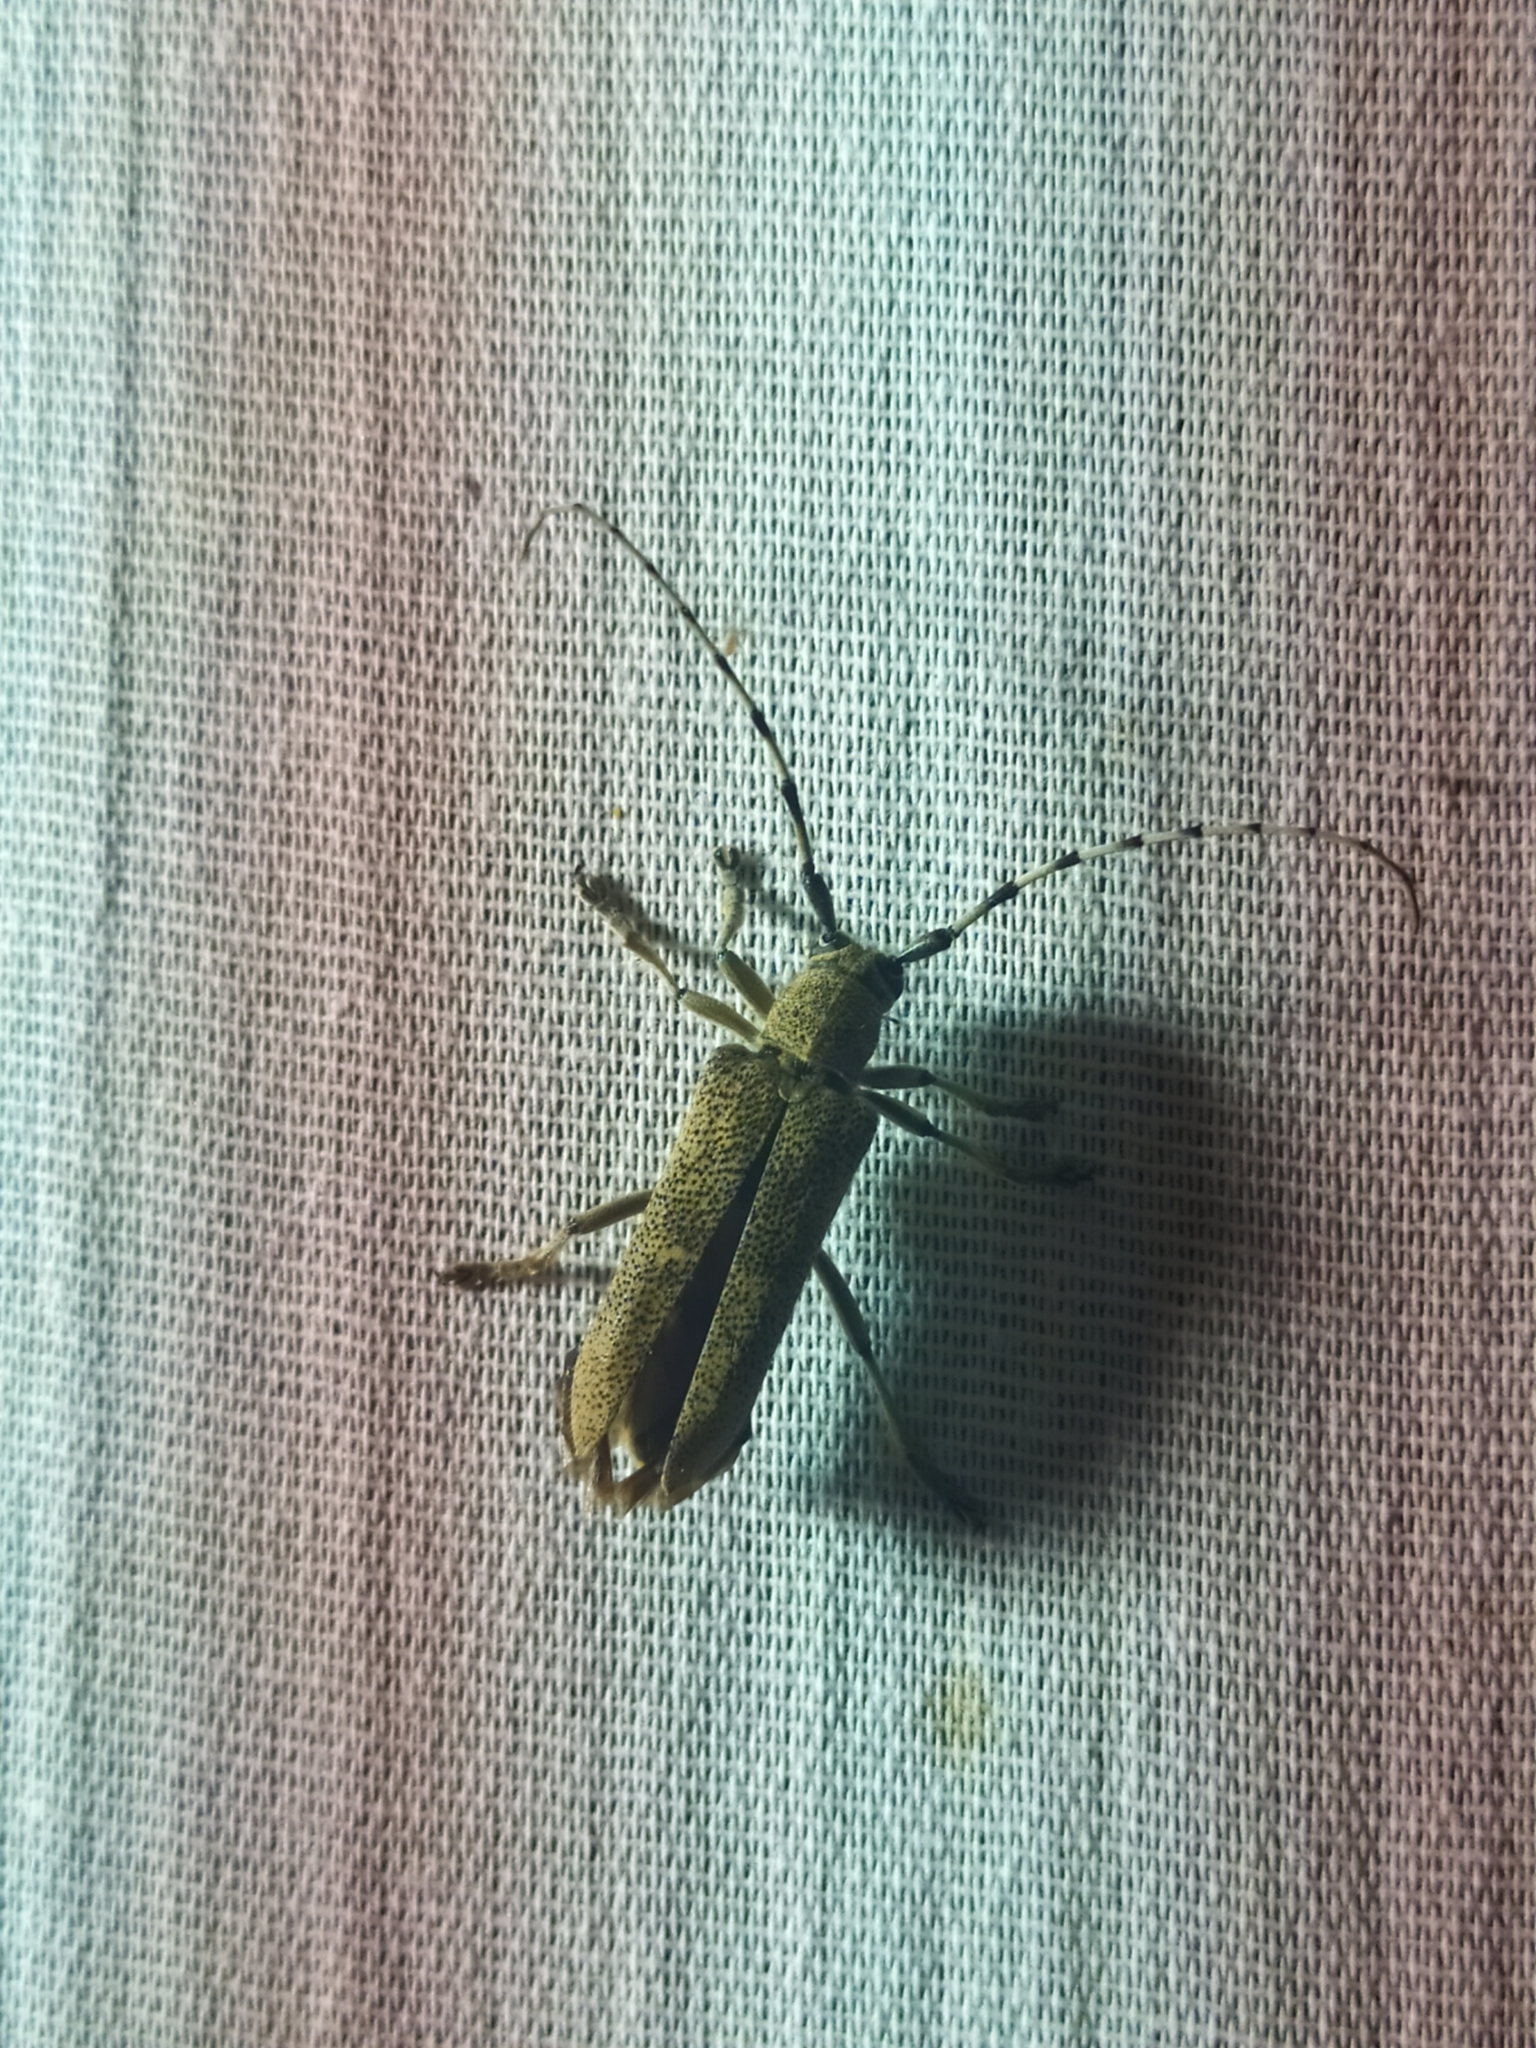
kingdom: Animalia
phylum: Arthropoda
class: Insecta
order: Coleoptera
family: Cerambycidae
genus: Saperda
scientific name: Saperda carcharias
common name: Poplar borer
